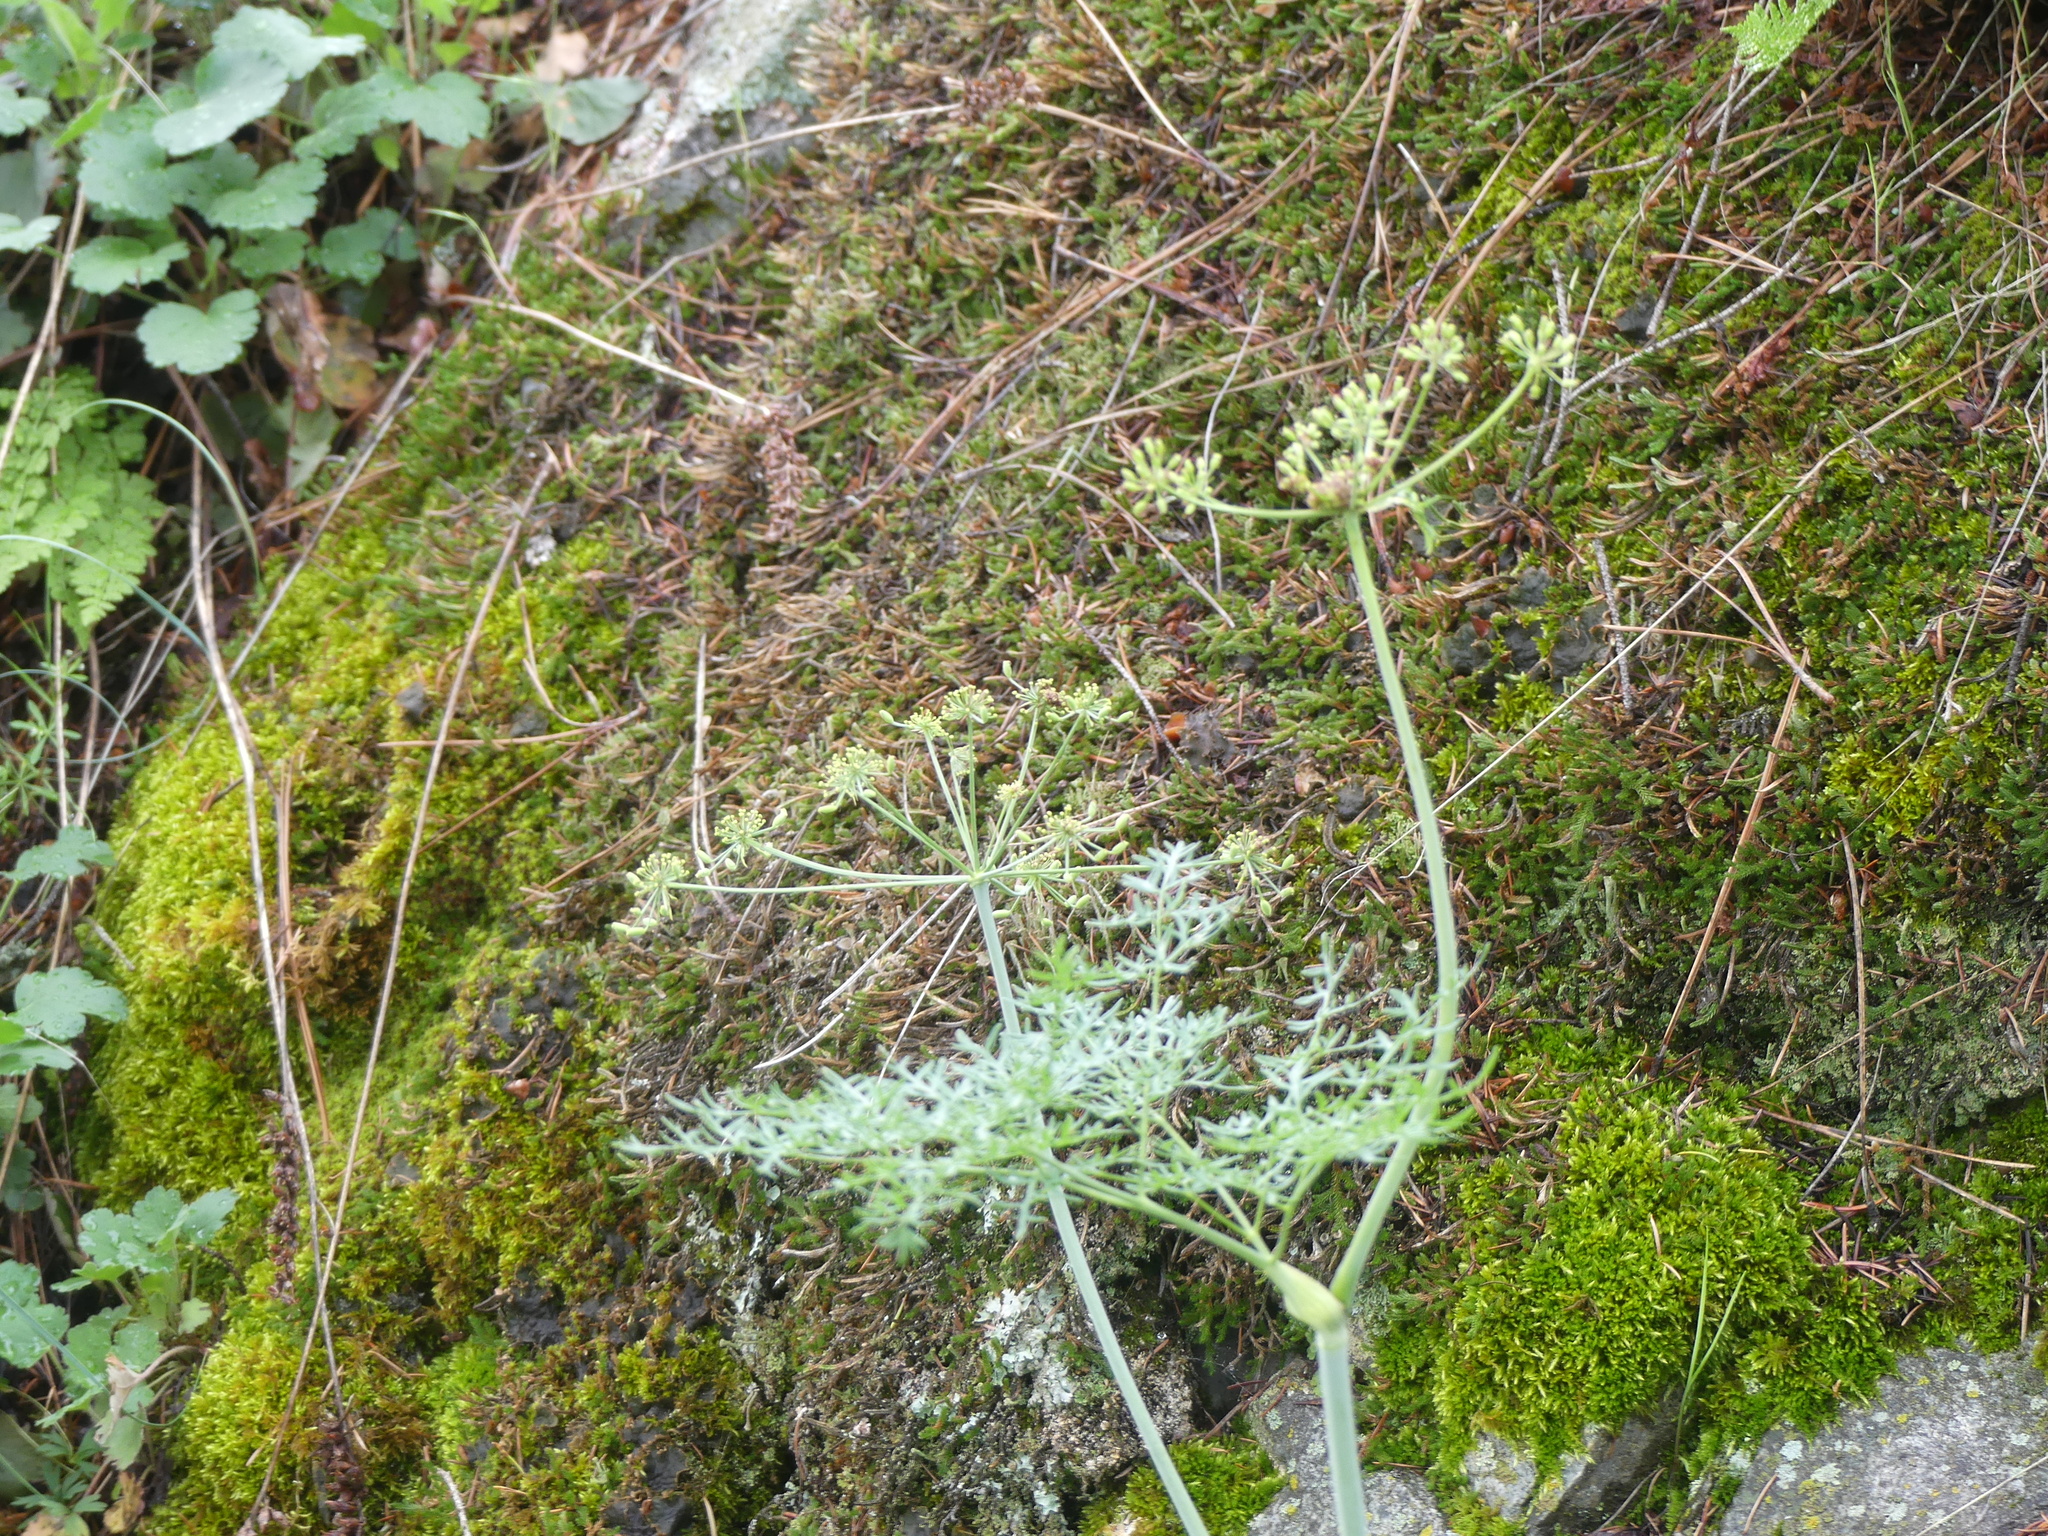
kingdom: Plantae
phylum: Tracheophyta
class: Magnoliopsida
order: Apiales
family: Apiaceae
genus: Lomatium
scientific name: Lomatium multifidum
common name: Carrot-leaved biscuitroot
